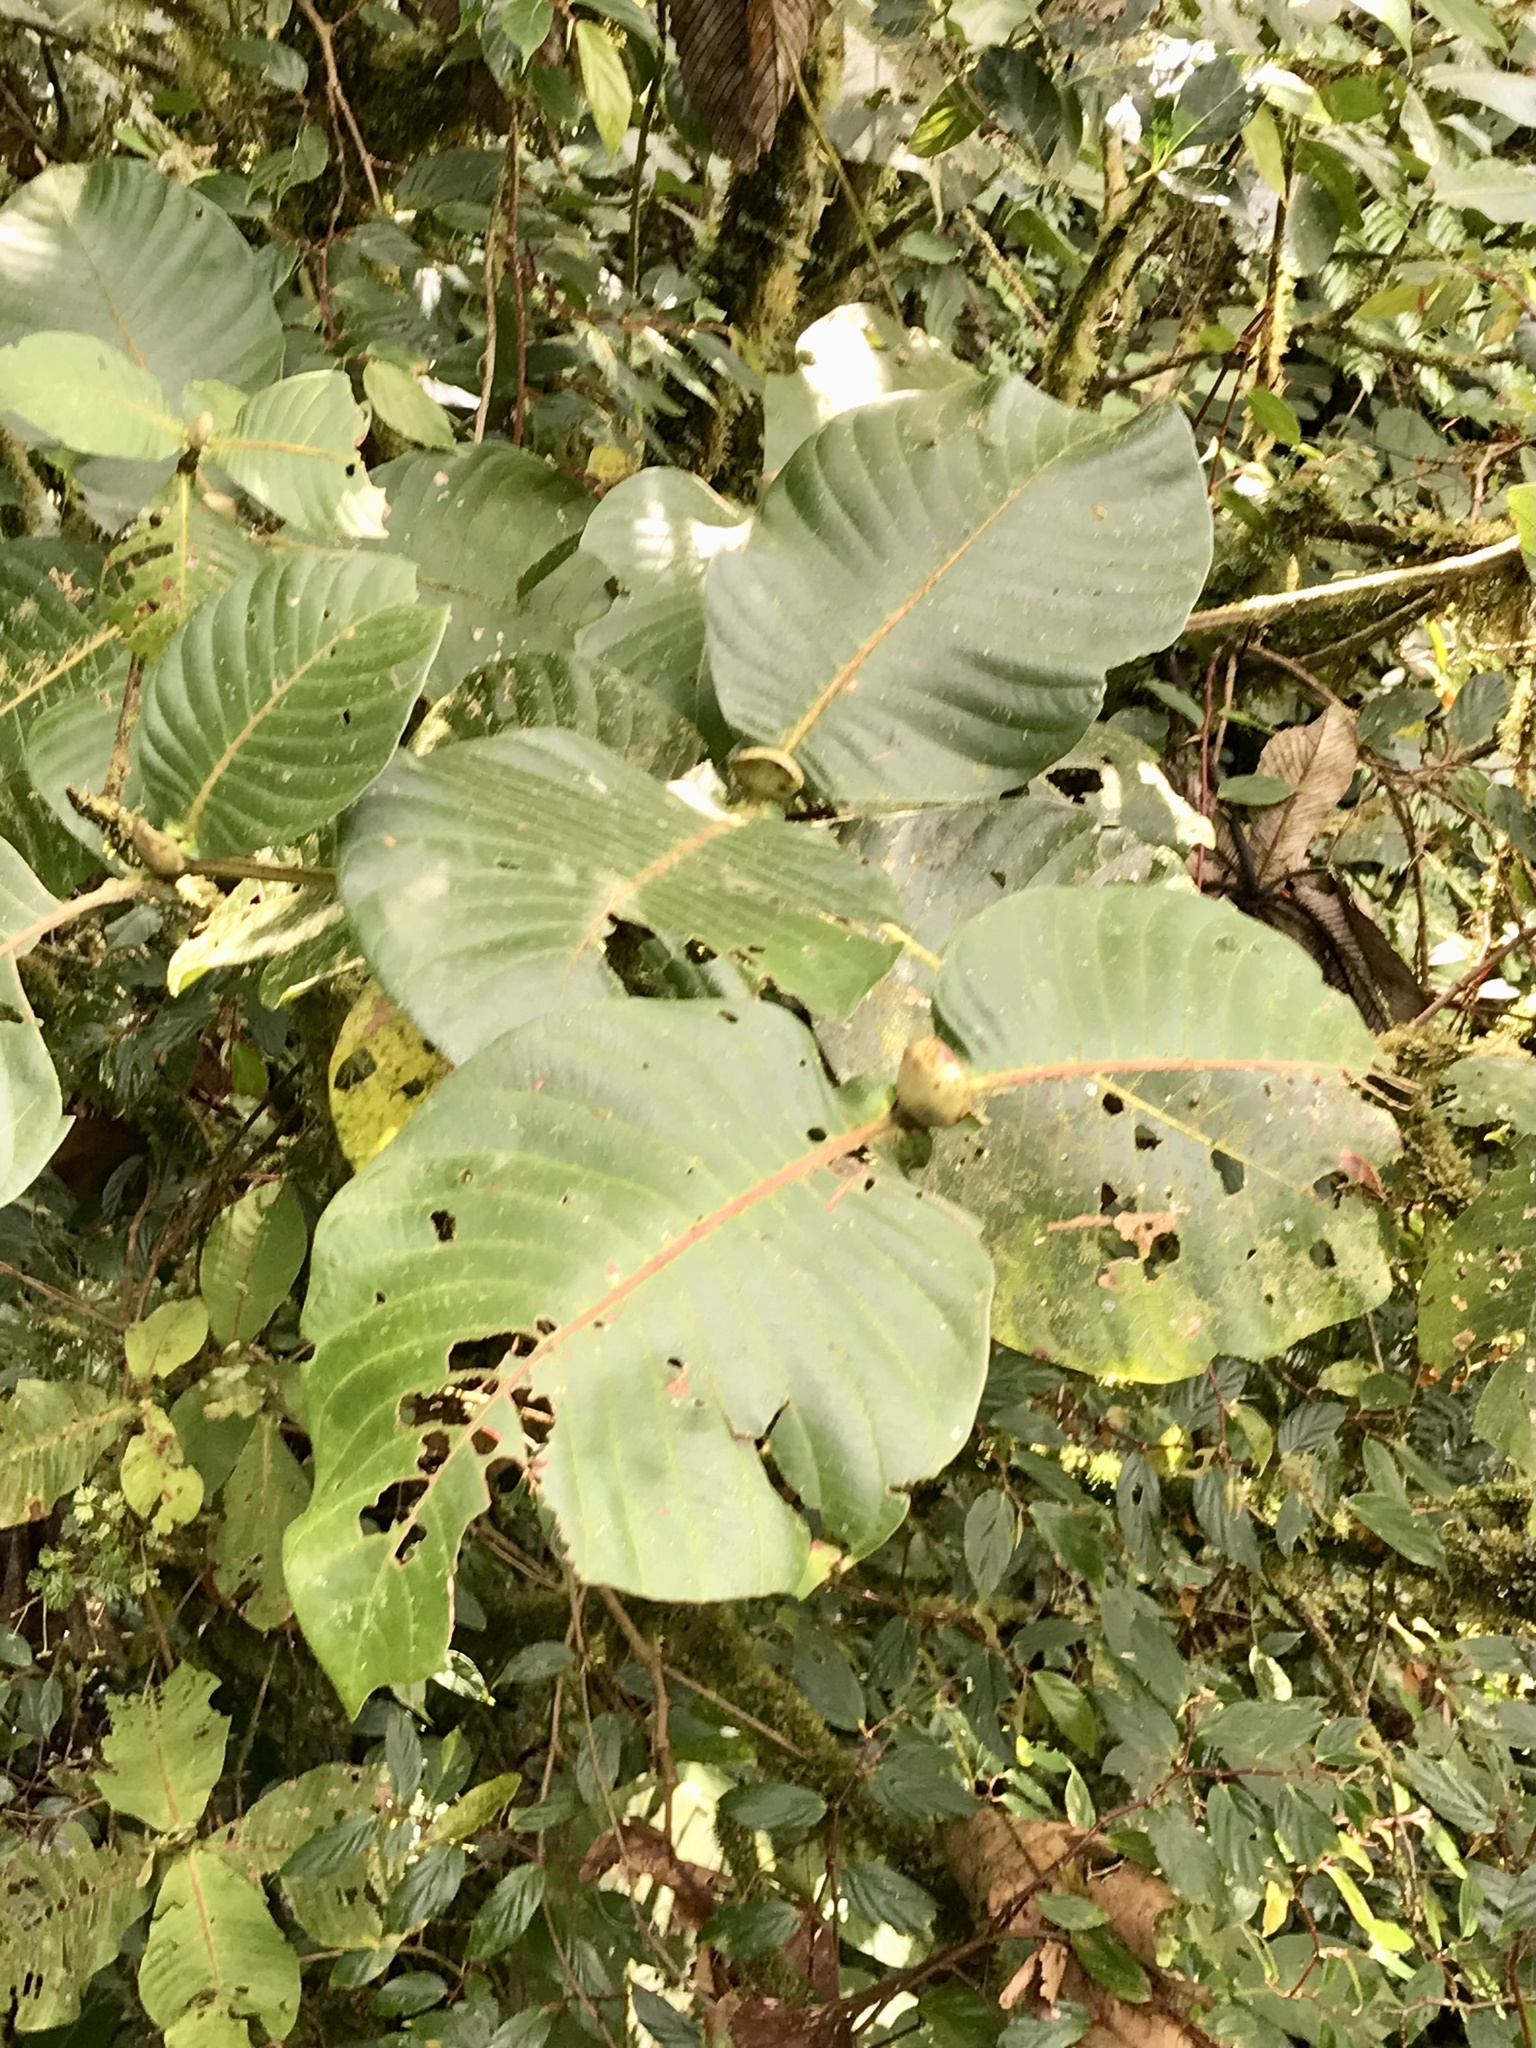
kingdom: Plantae
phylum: Tracheophyta
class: Magnoliopsida
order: Gentianales
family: Rubiaceae
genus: Elaeagia
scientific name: Elaeagia auriculata
